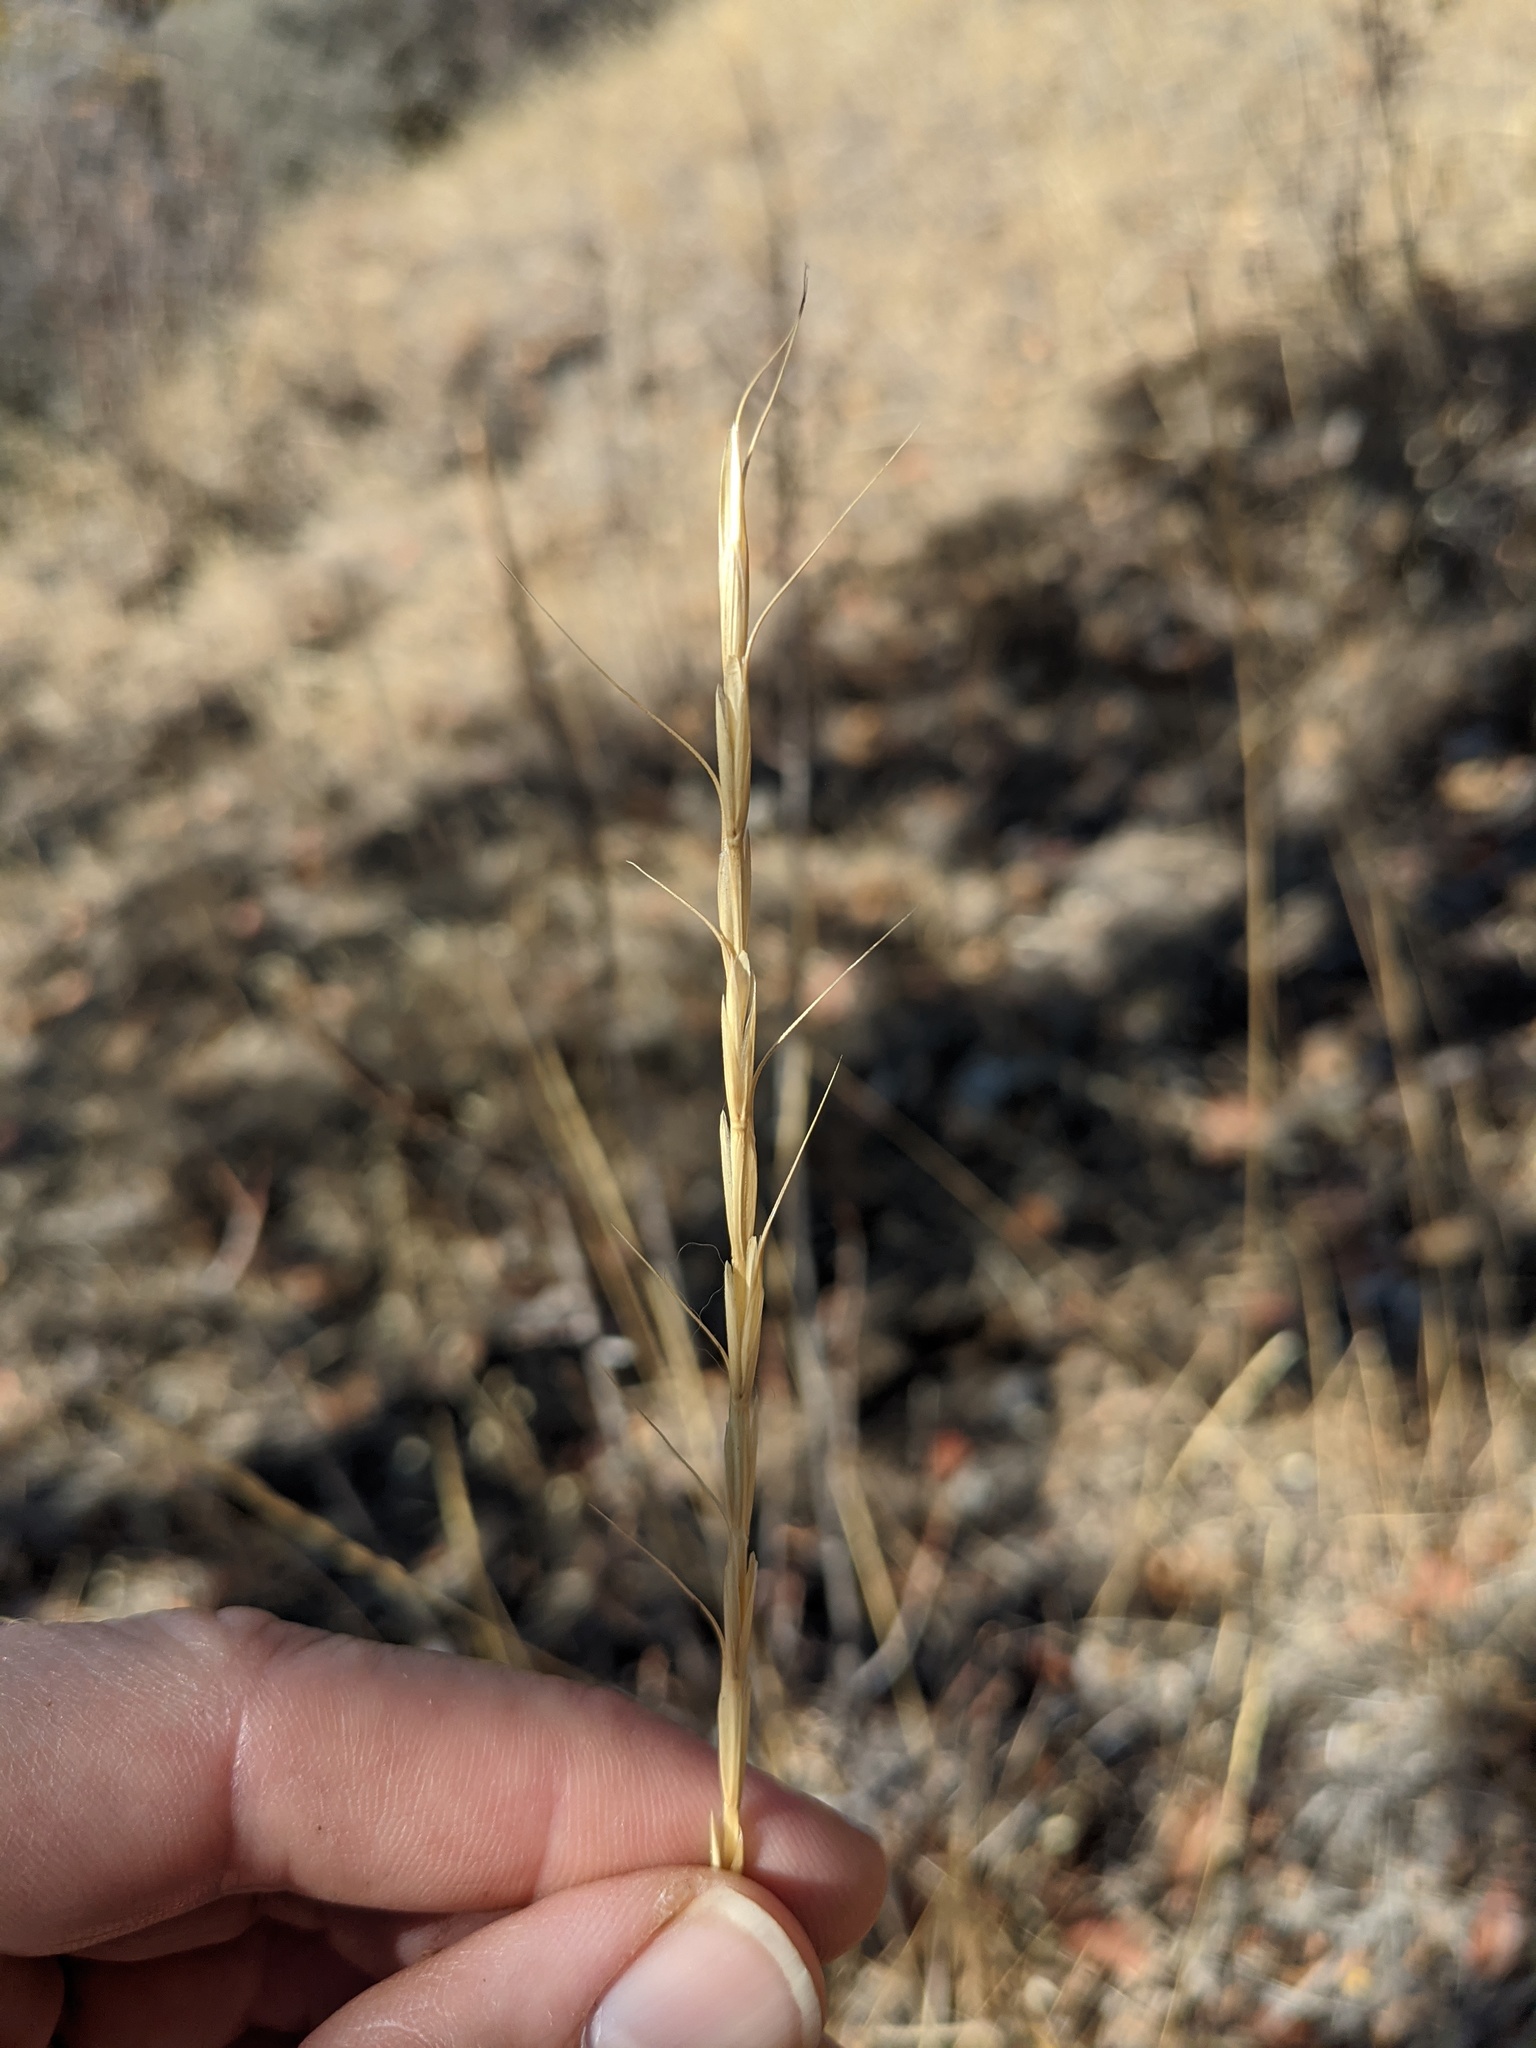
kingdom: Plantae
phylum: Tracheophyta
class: Liliopsida
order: Poales
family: Poaceae
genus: Pseudoroegneria
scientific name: Pseudoroegneria spicata
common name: Bluebunch wheatgrass
